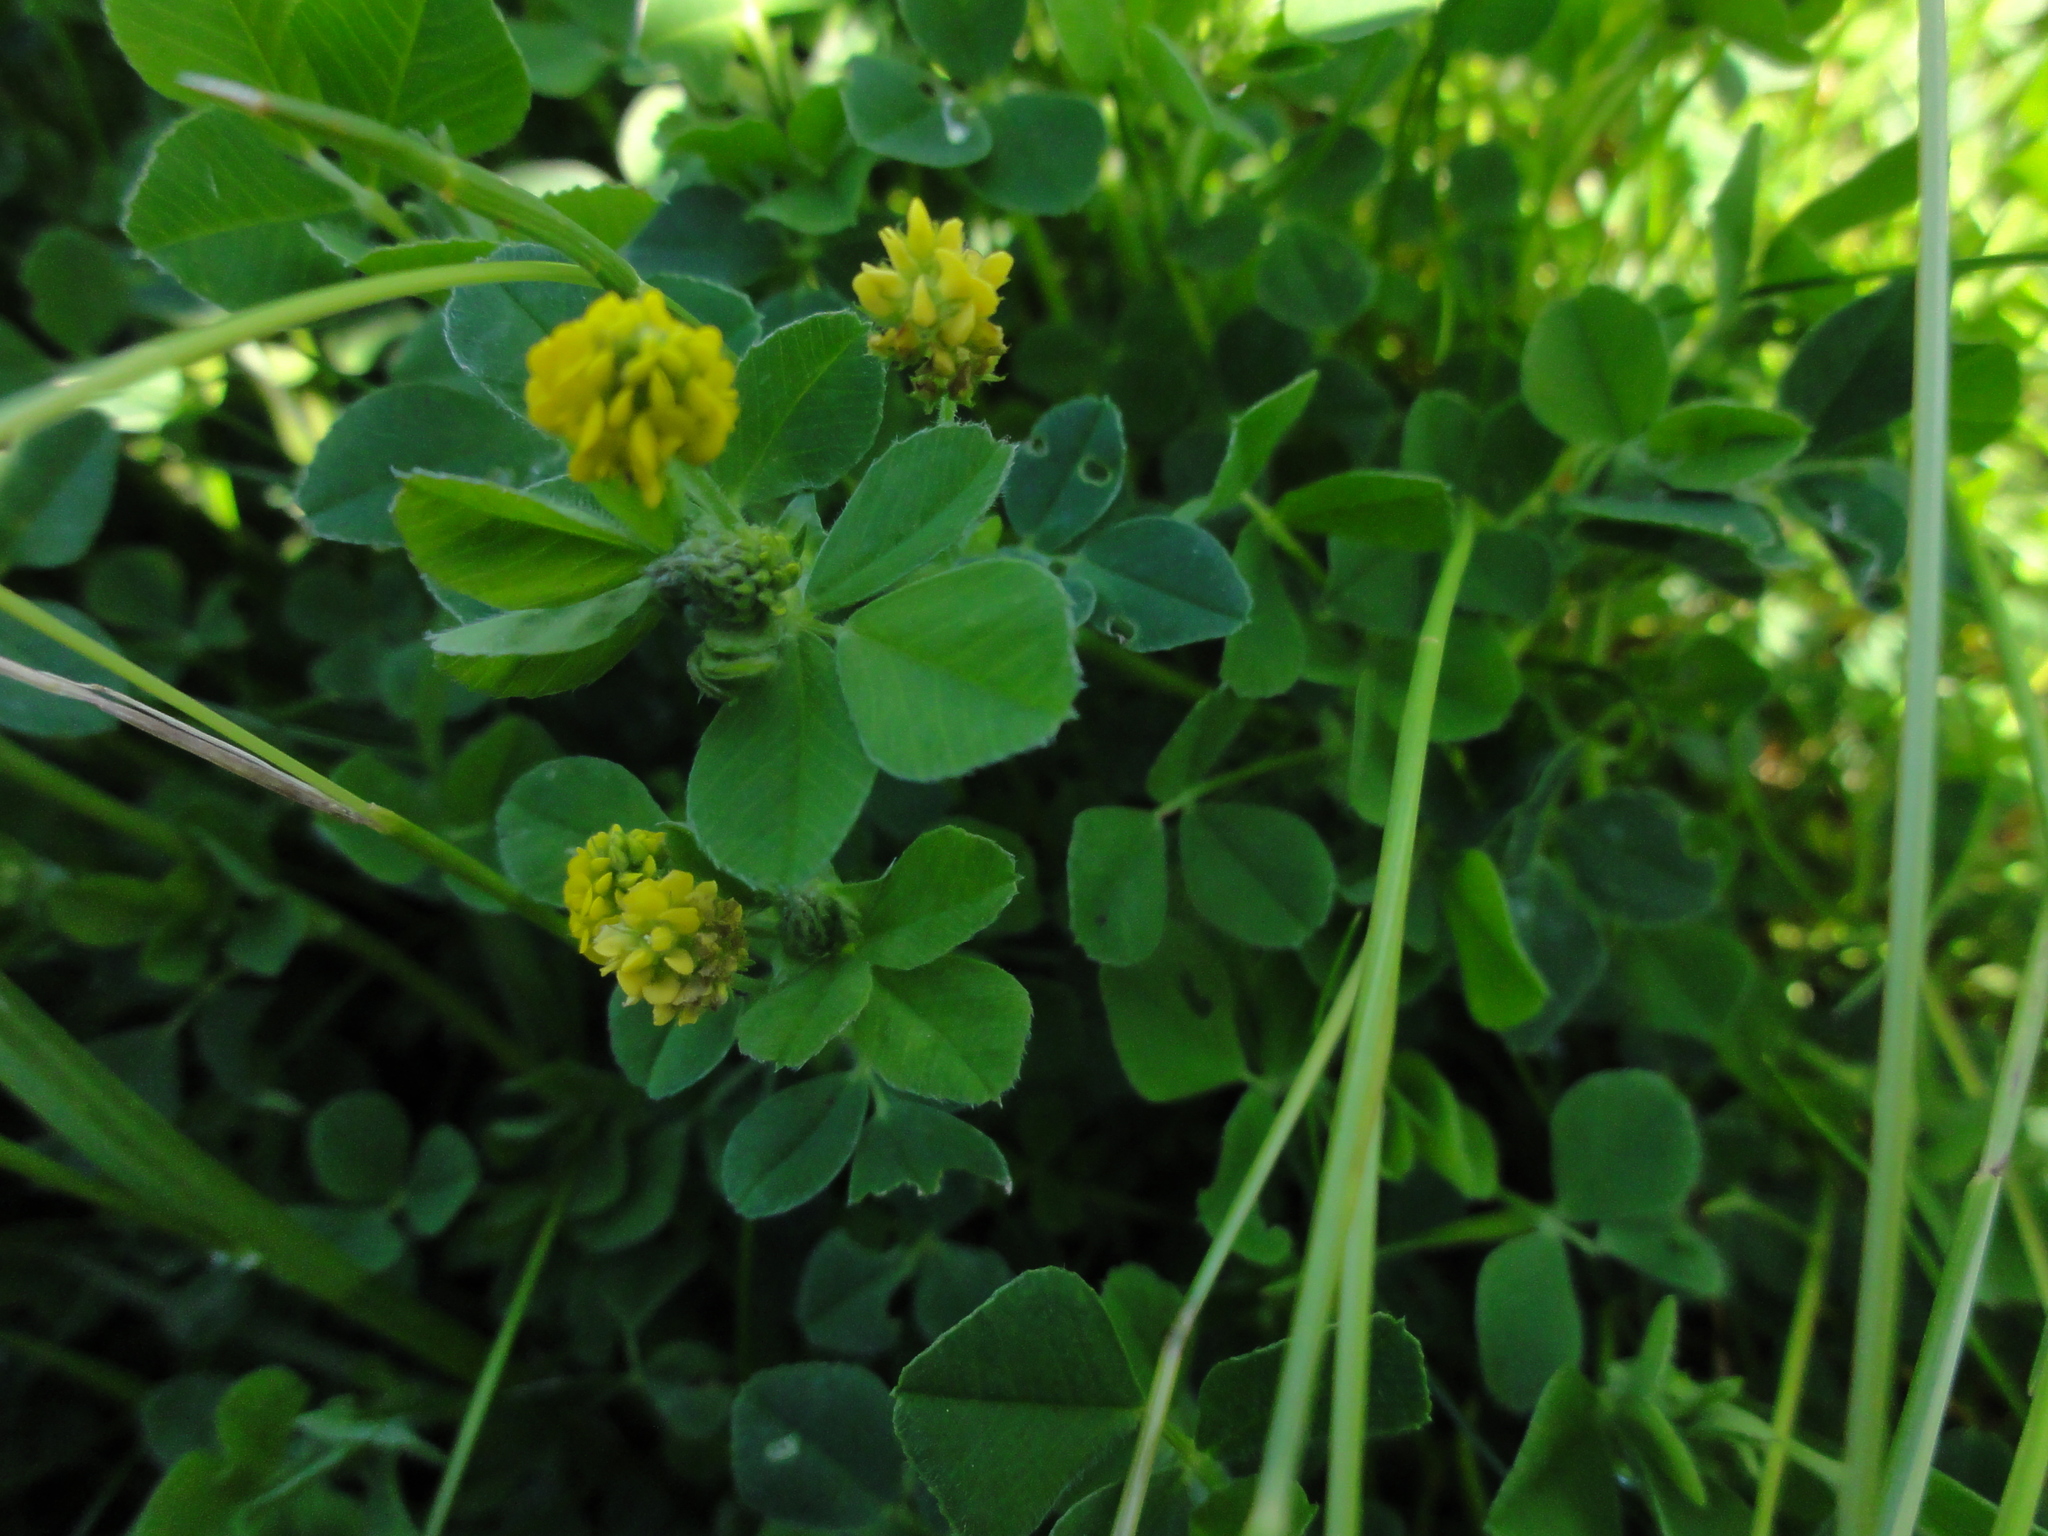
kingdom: Plantae
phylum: Tracheophyta
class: Magnoliopsida
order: Fabales
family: Fabaceae
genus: Medicago
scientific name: Medicago lupulina
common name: Black medick
